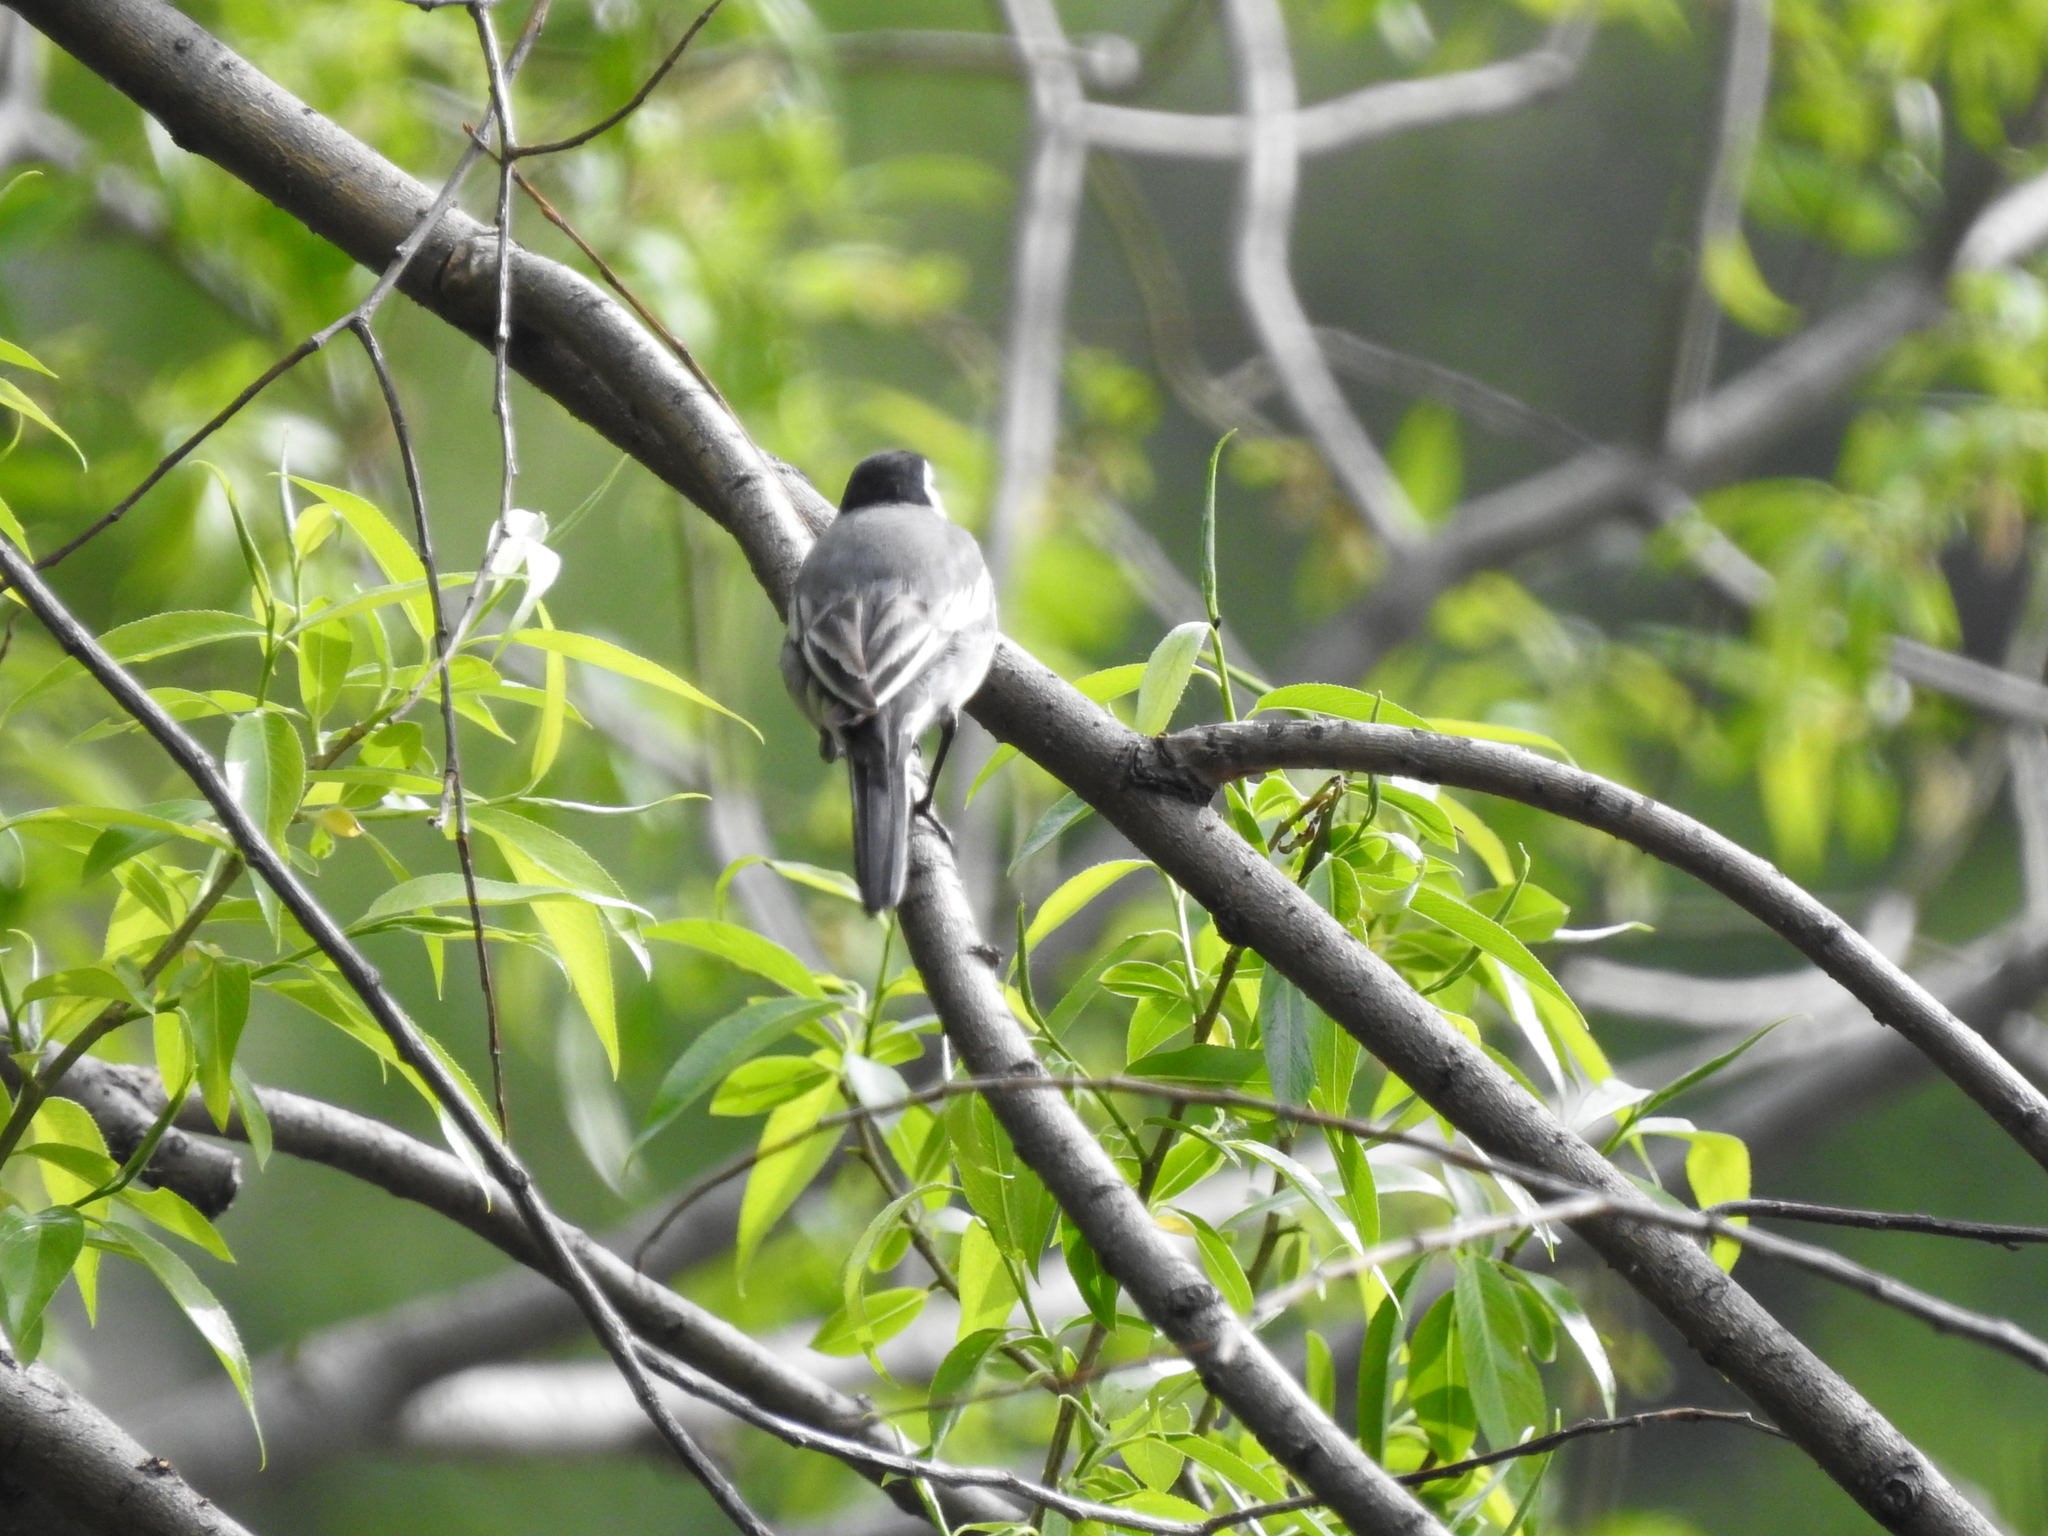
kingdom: Animalia
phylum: Chordata
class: Aves
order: Passeriformes
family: Motacillidae
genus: Motacilla
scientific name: Motacilla alba
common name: White wagtail
